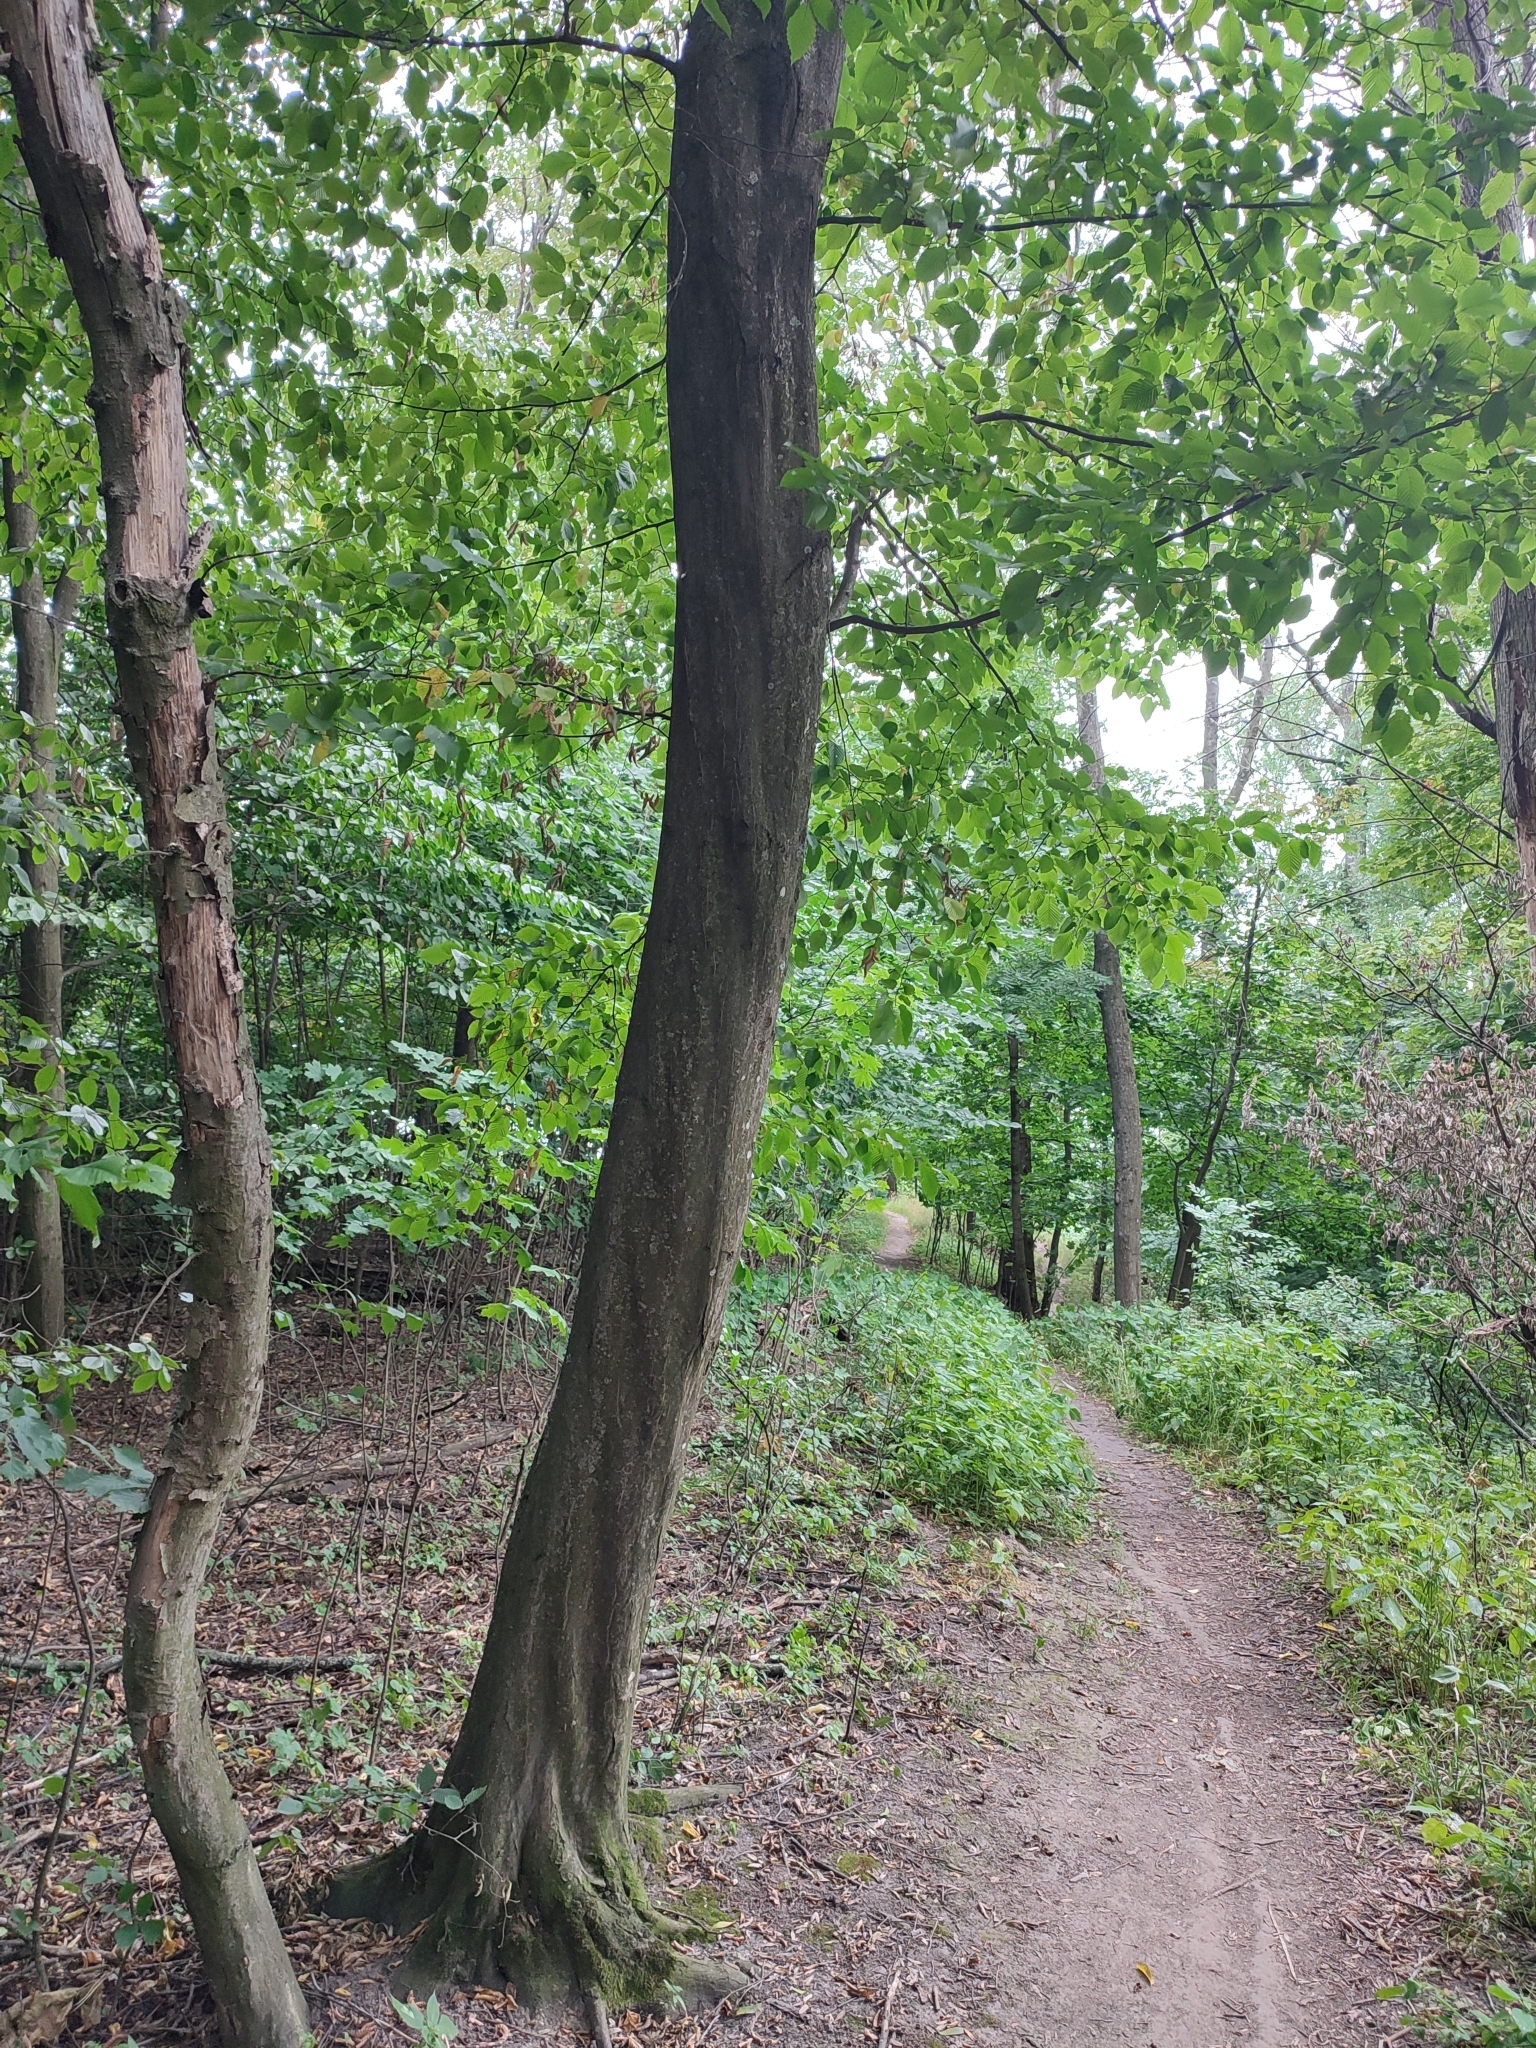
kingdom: Plantae
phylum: Tracheophyta
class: Magnoliopsida
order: Fagales
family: Betulaceae
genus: Carpinus
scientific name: Carpinus betulus
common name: Hornbeam
